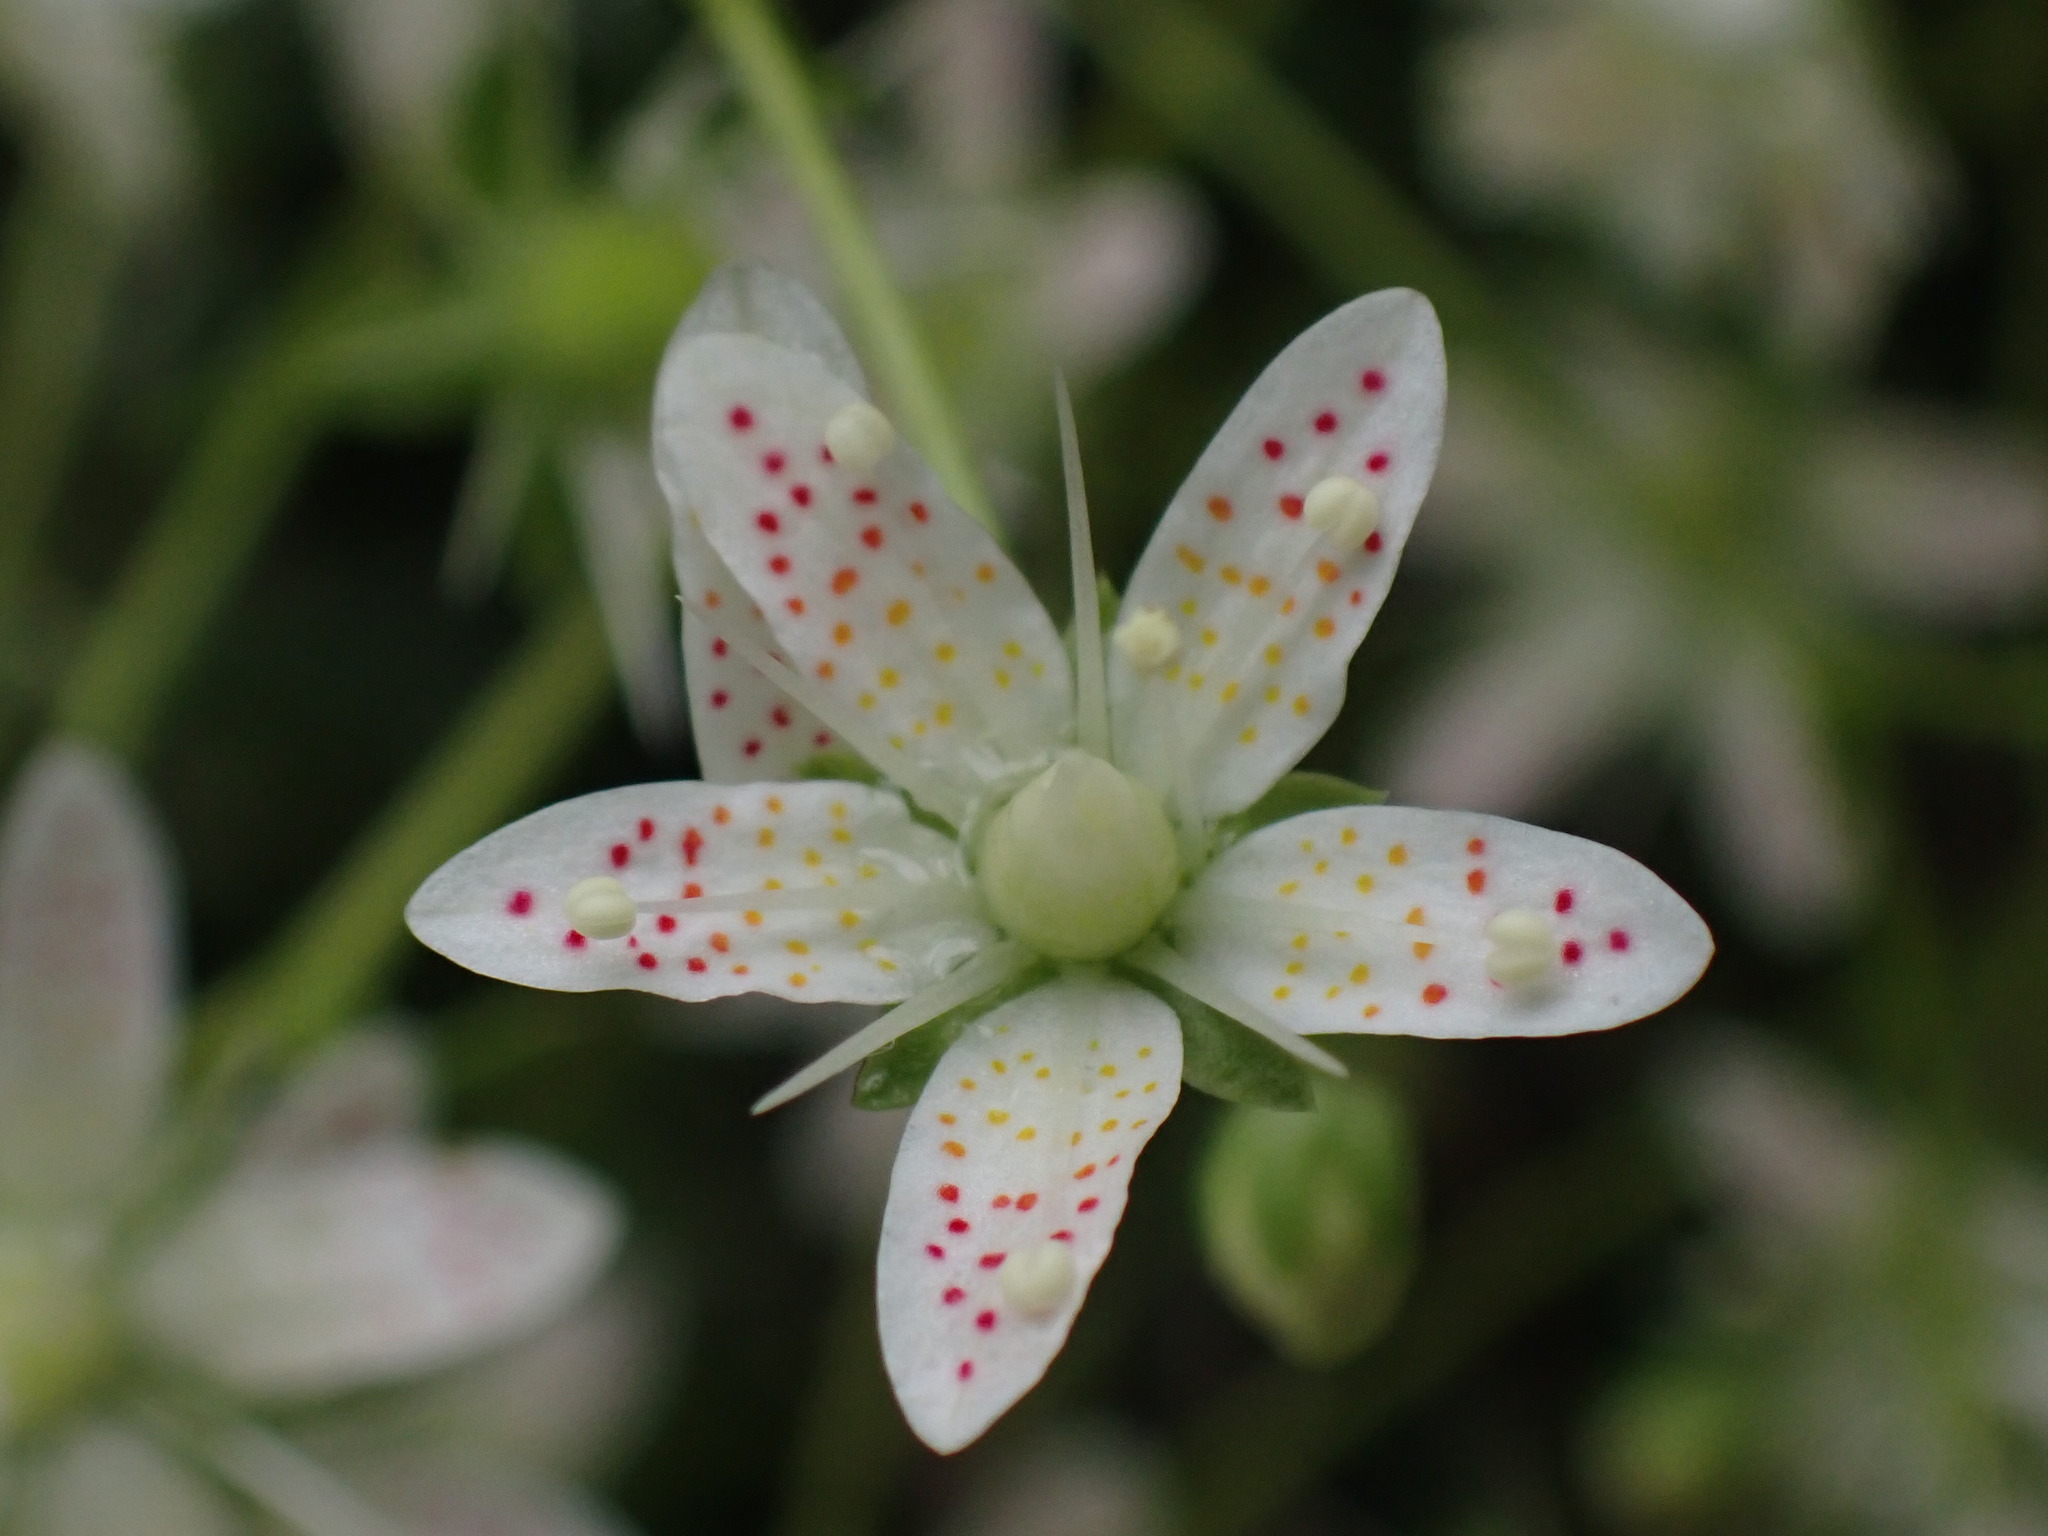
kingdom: Plantae
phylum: Tracheophyta
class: Magnoliopsida
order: Saxifragales
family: Saxifragaceae
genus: Saxifraga
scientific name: Saxifraga bronchialis
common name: Matted saxifrage
